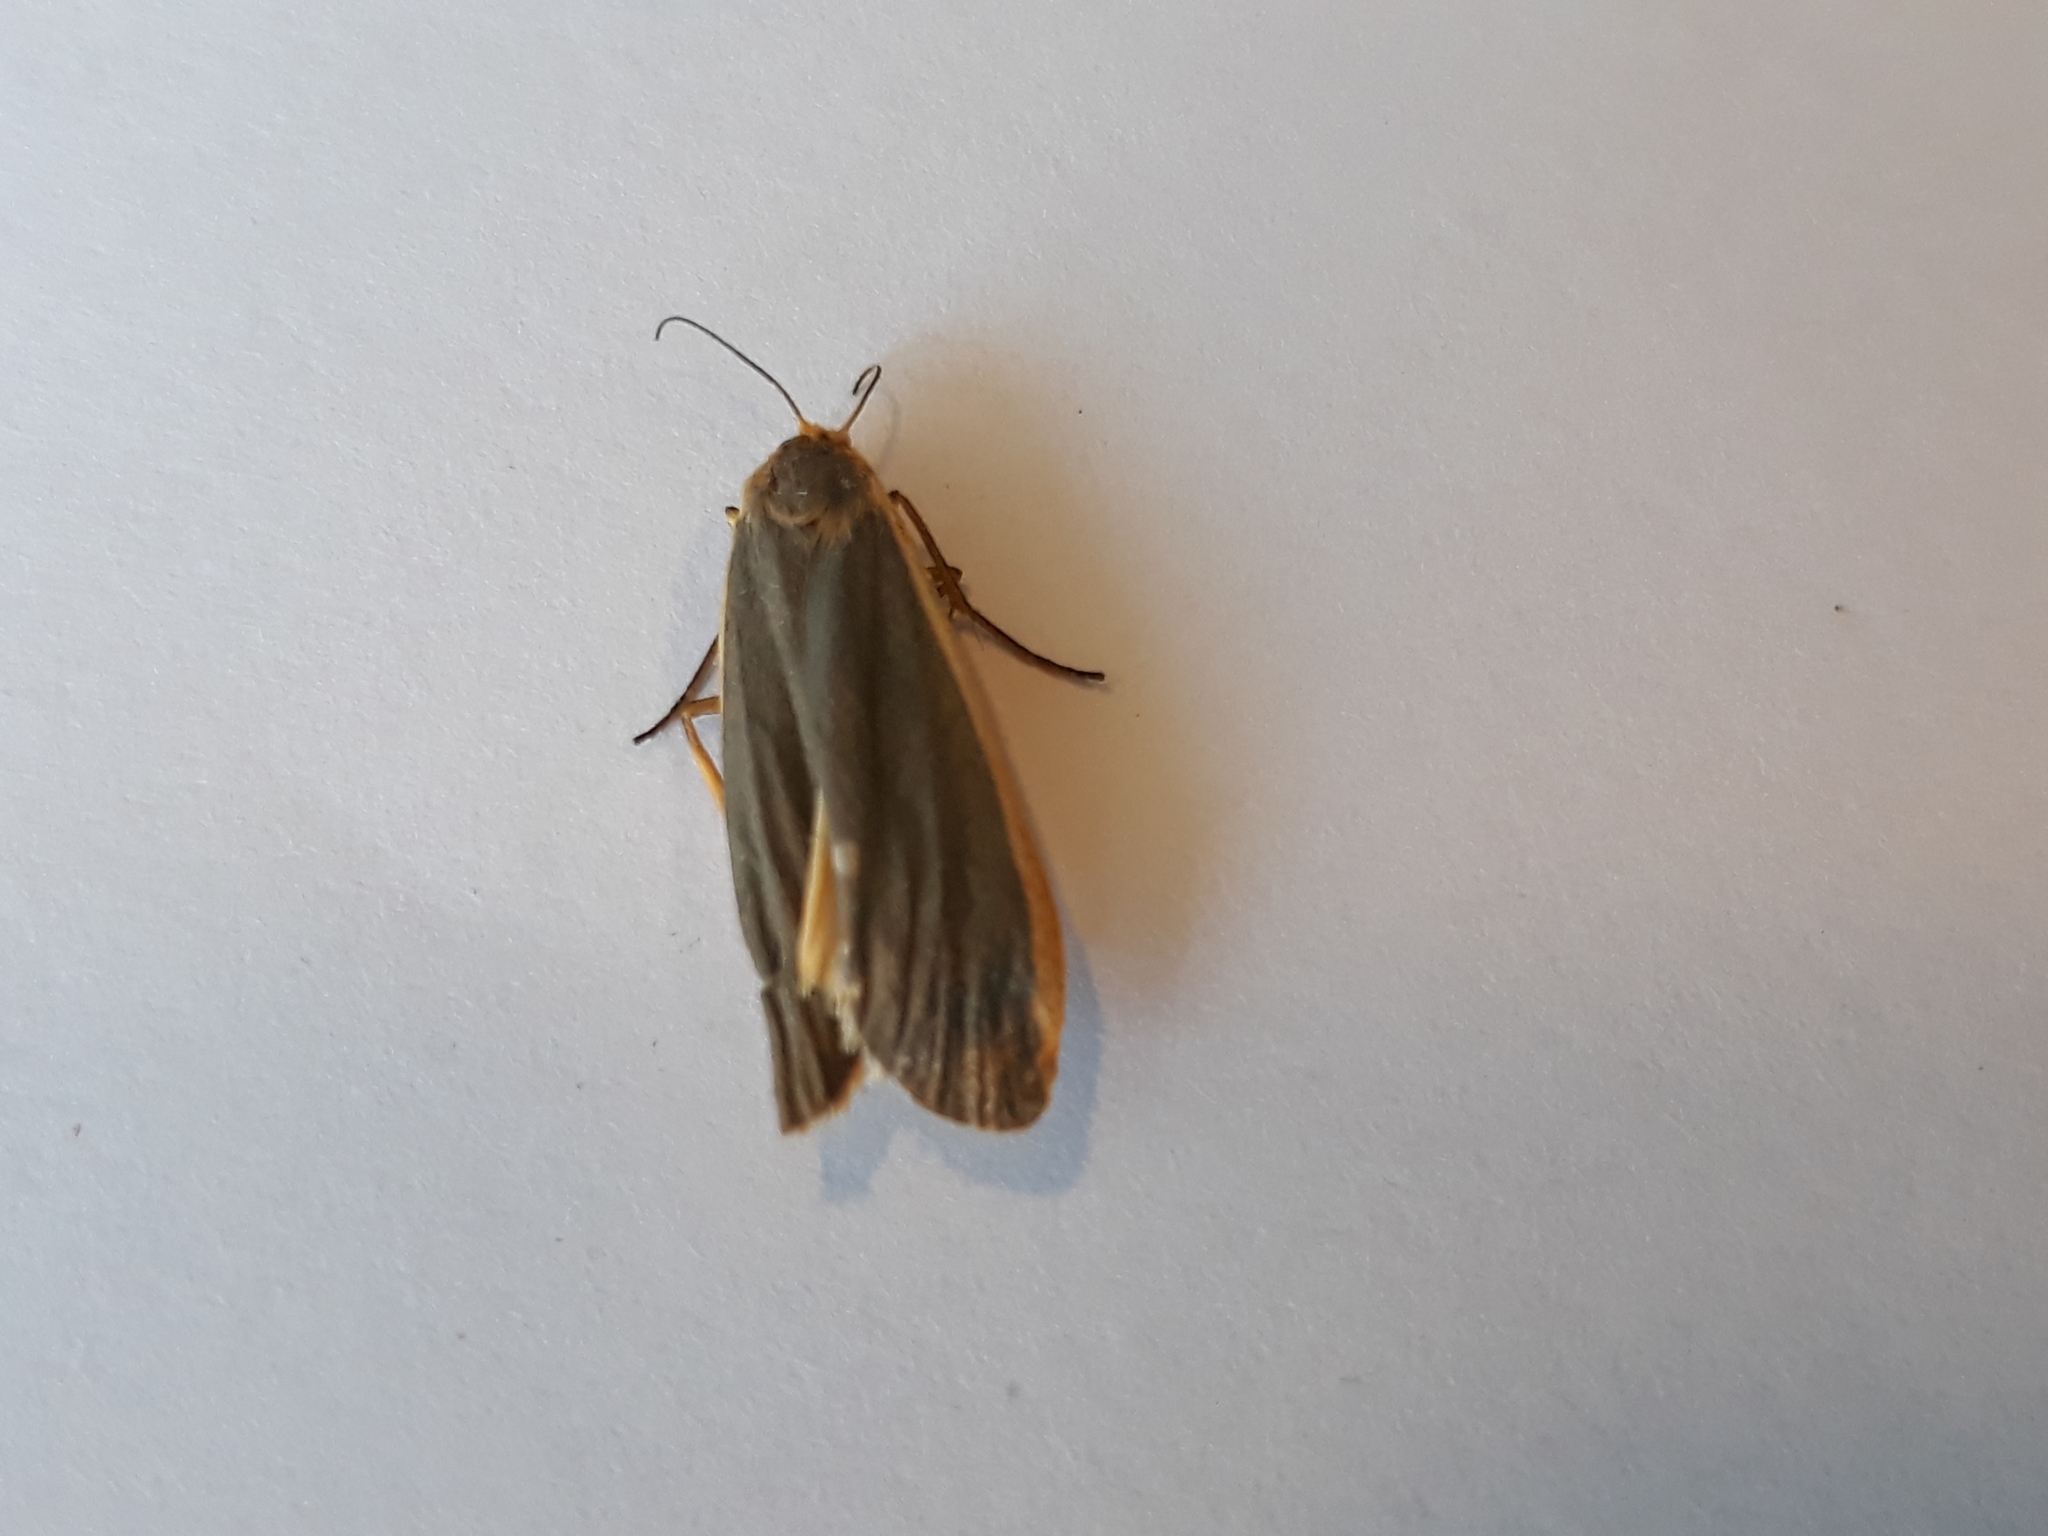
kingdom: Animalia
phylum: Arthropoda
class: Insecta
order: Lepidoptera
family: Erebidae
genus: Nyea
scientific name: Nyea lurideola
